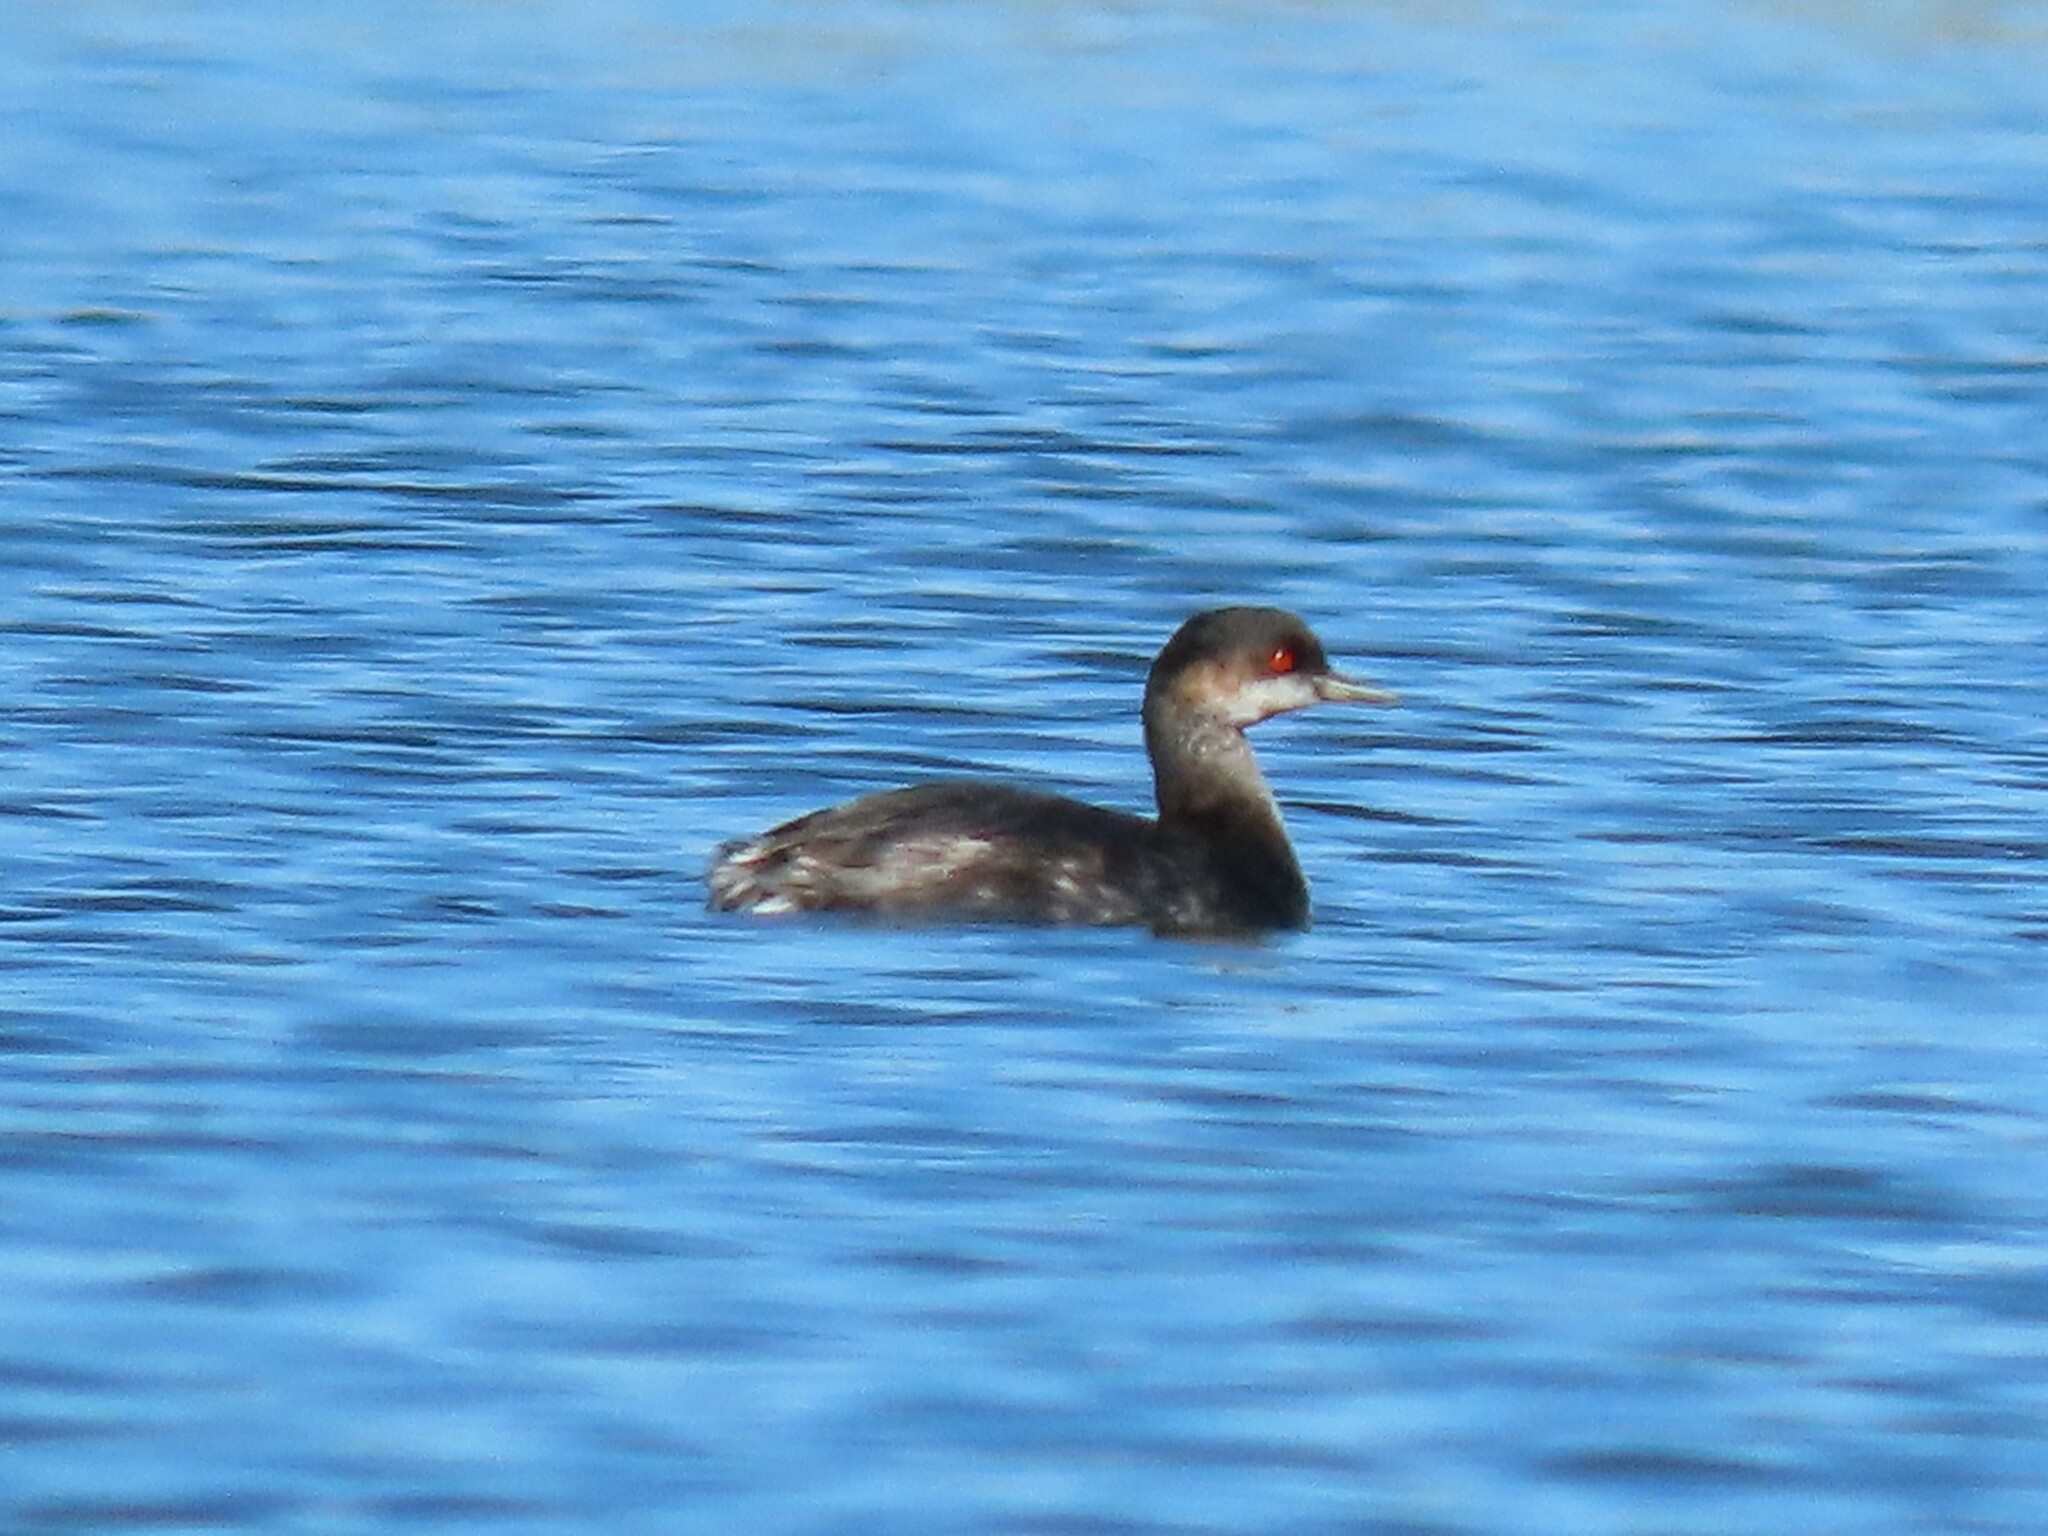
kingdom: Animalia
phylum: Chordata
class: Aves
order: Podicipediformes
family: Podicipedidae
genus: Podiceps
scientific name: Podiceps nigricollis
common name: Black-necked grebe
